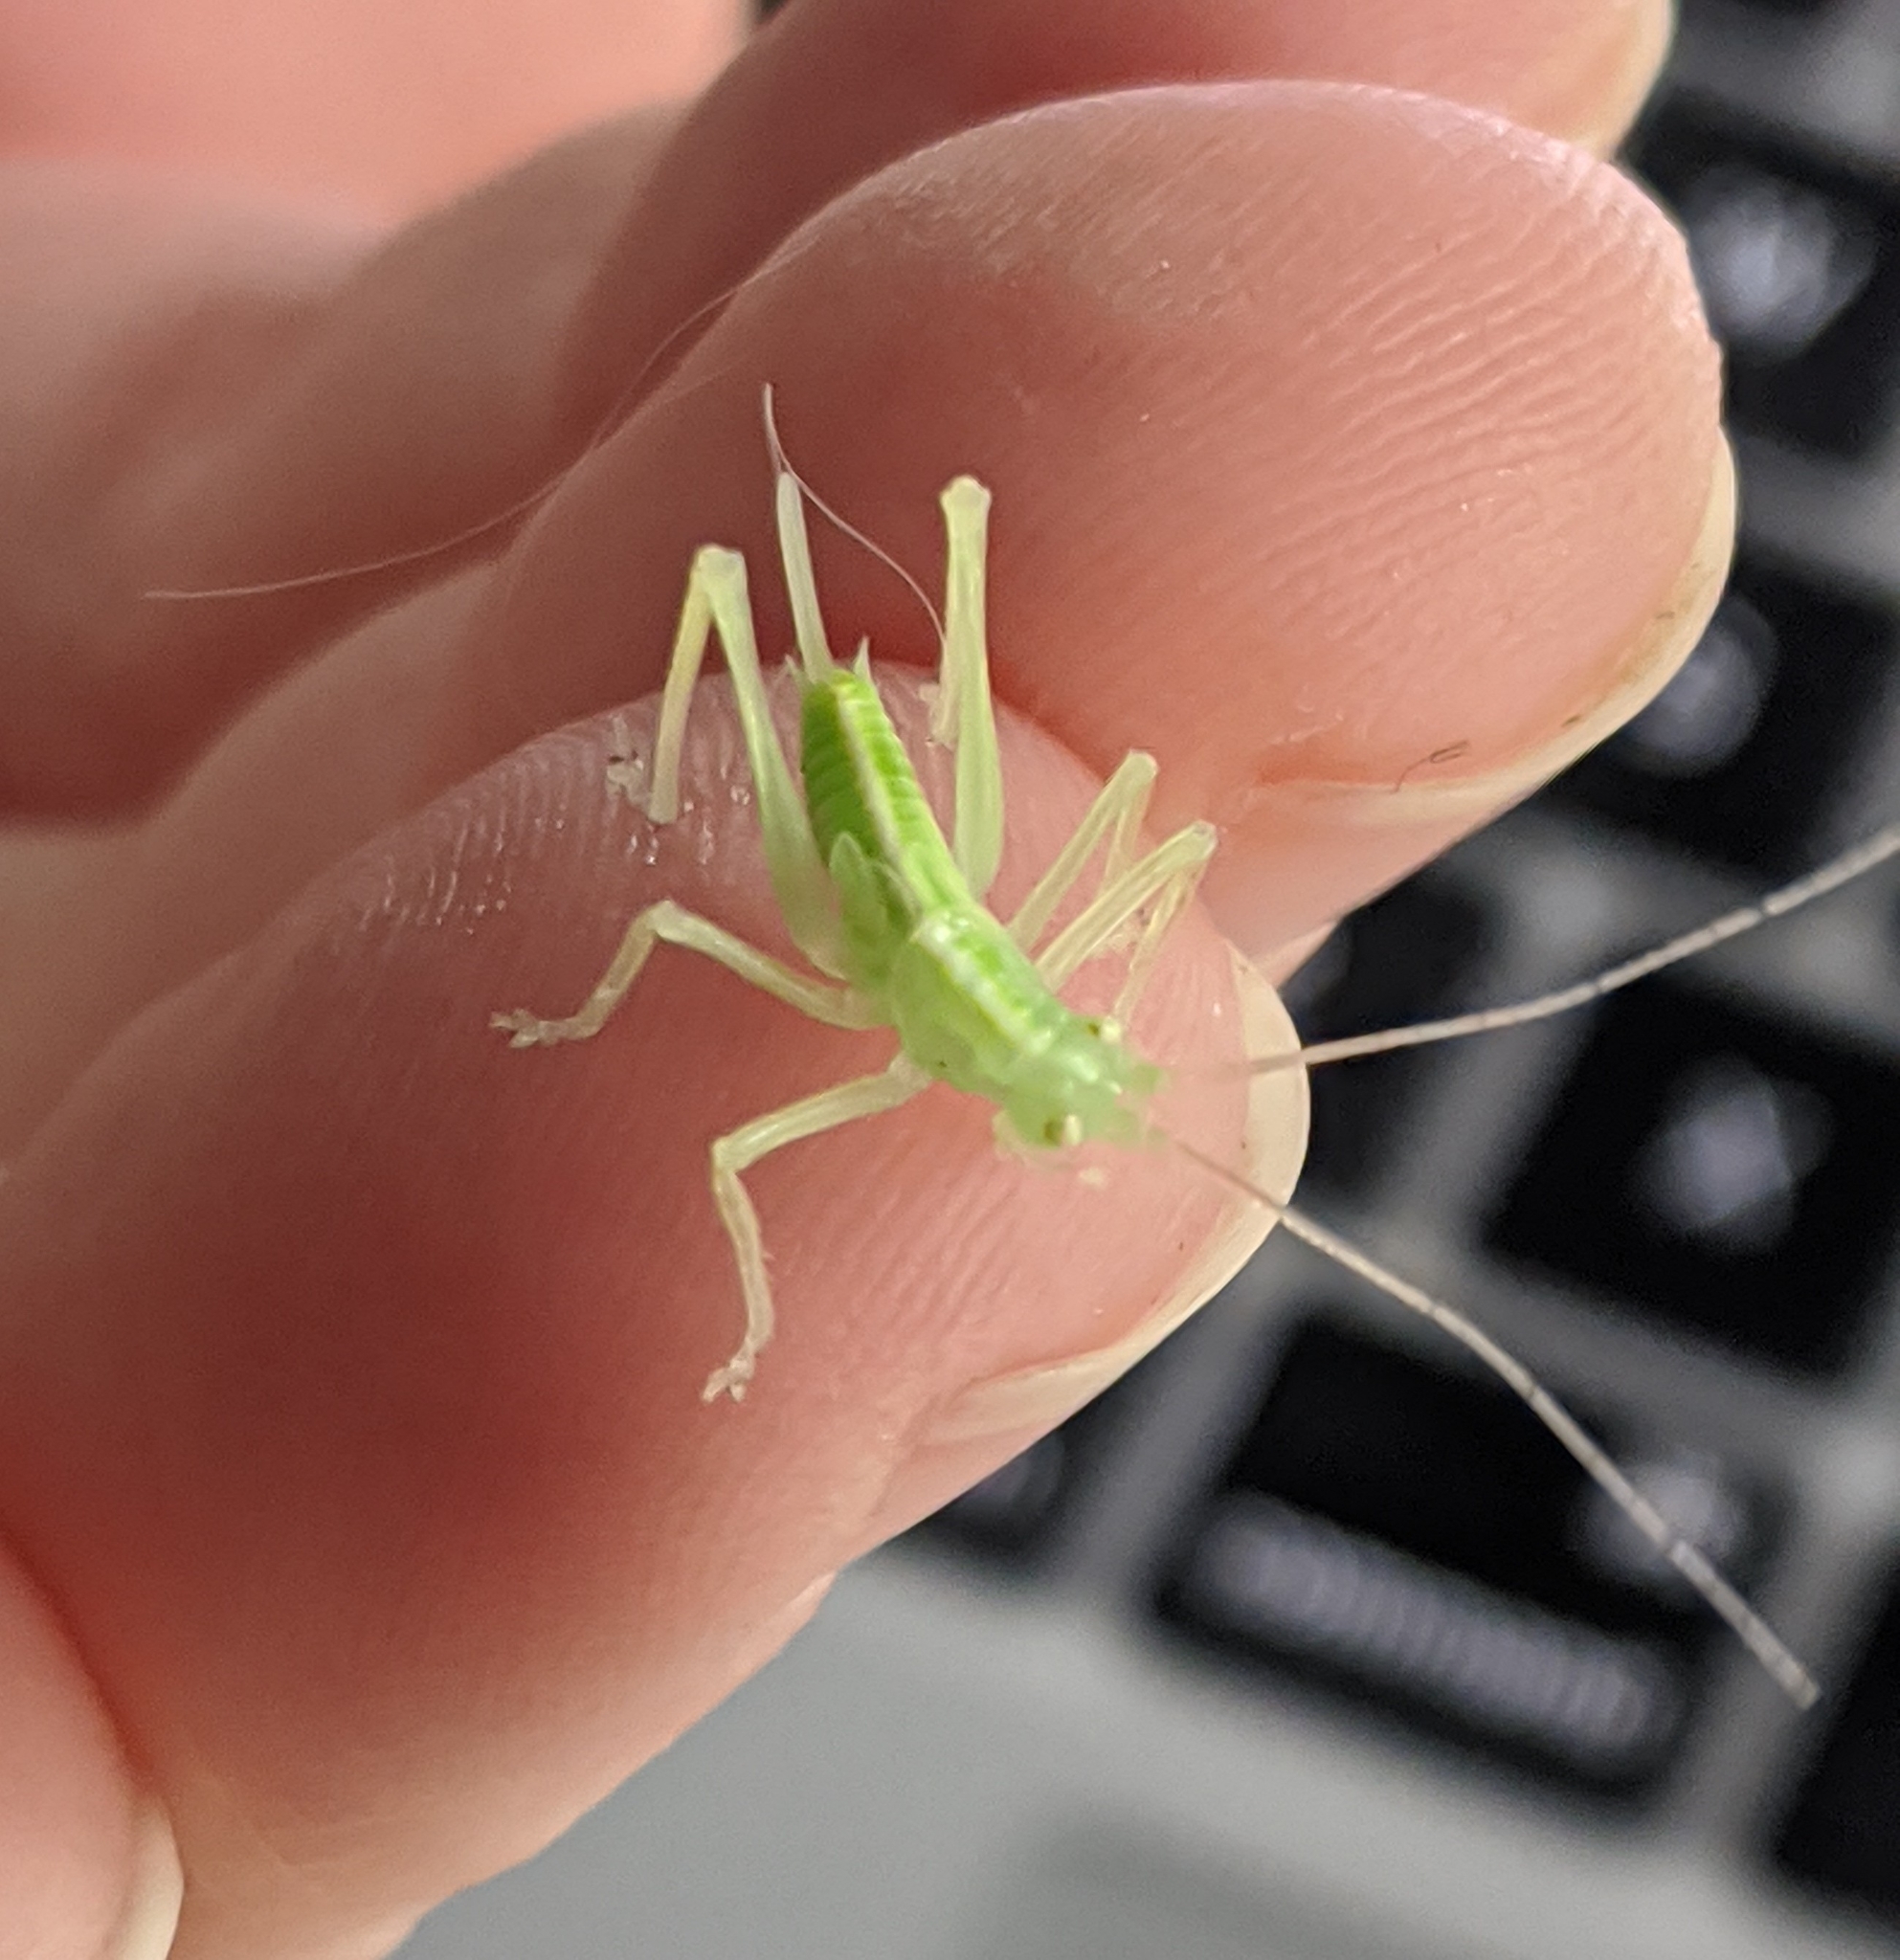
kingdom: Animalia
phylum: Arthropoda
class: Insecta
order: Orthoptera
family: Tettigoniidae
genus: Meconema
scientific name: Meconema thalassinum
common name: Oak bush-cricket
